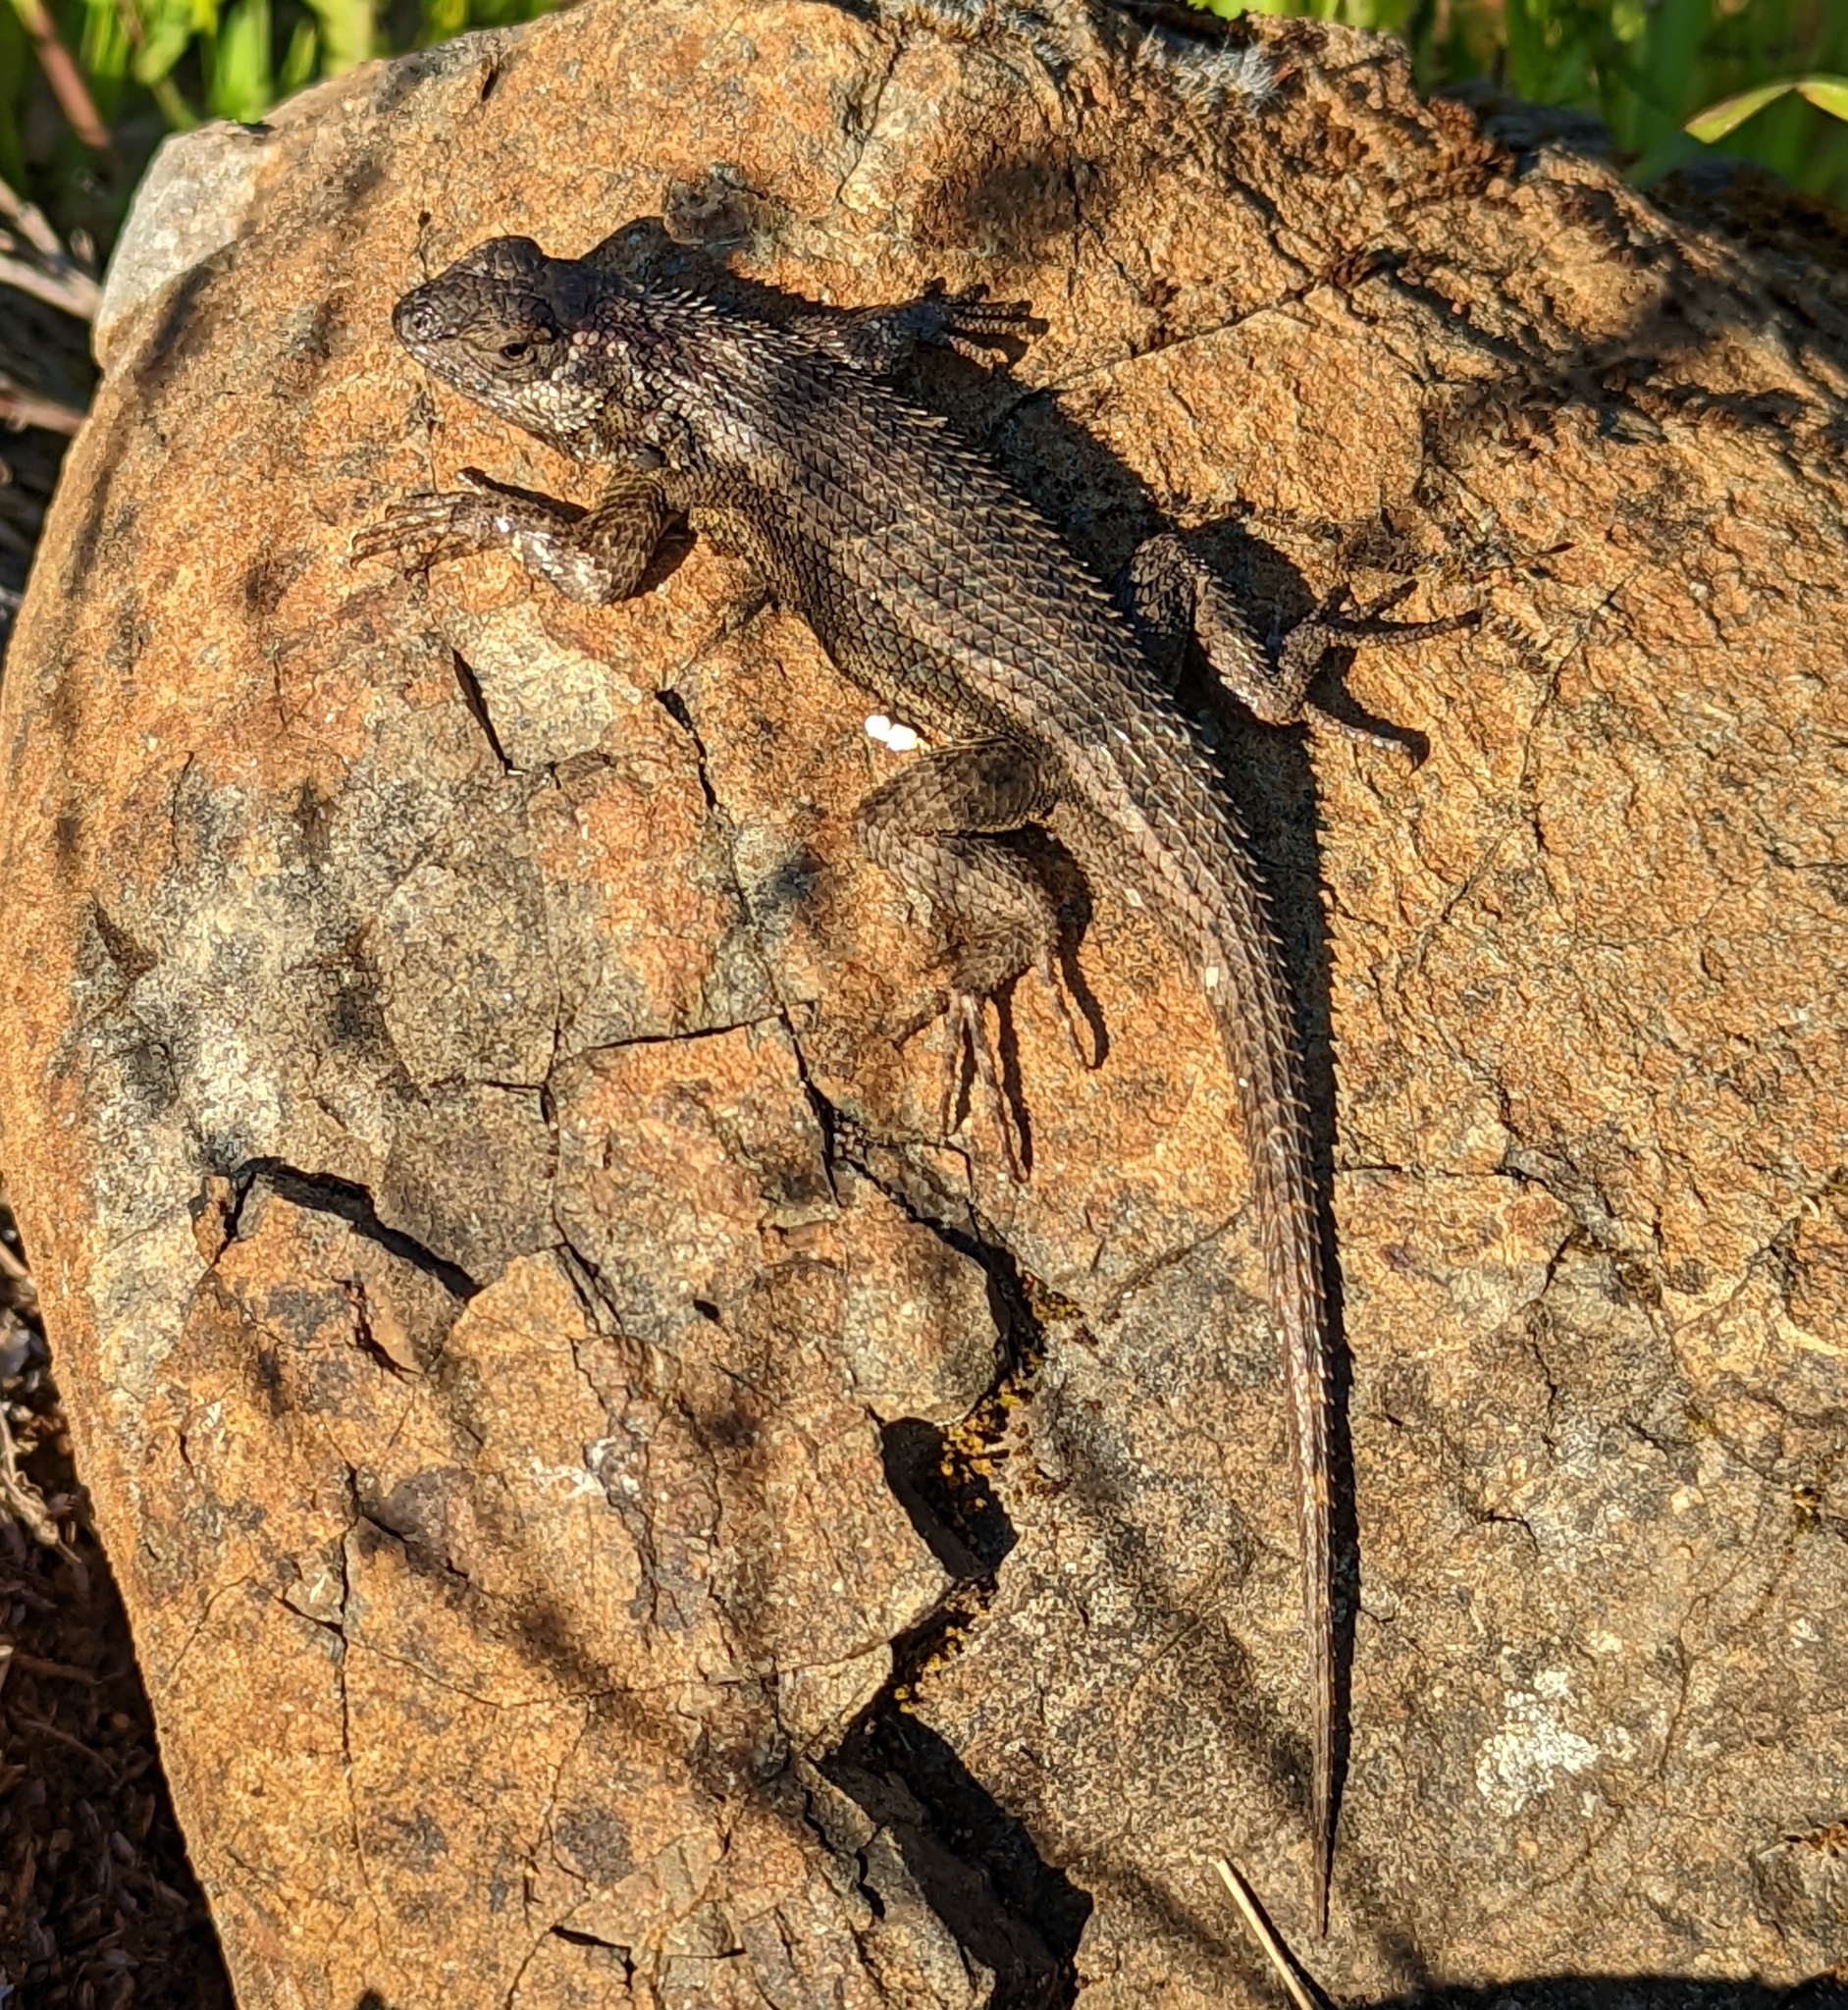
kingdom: Animalia
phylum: Chordata
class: Squamata
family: Phrynosomatidae
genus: Sceloporus
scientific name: Sceloporus occidentalis
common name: Western fence lizard
